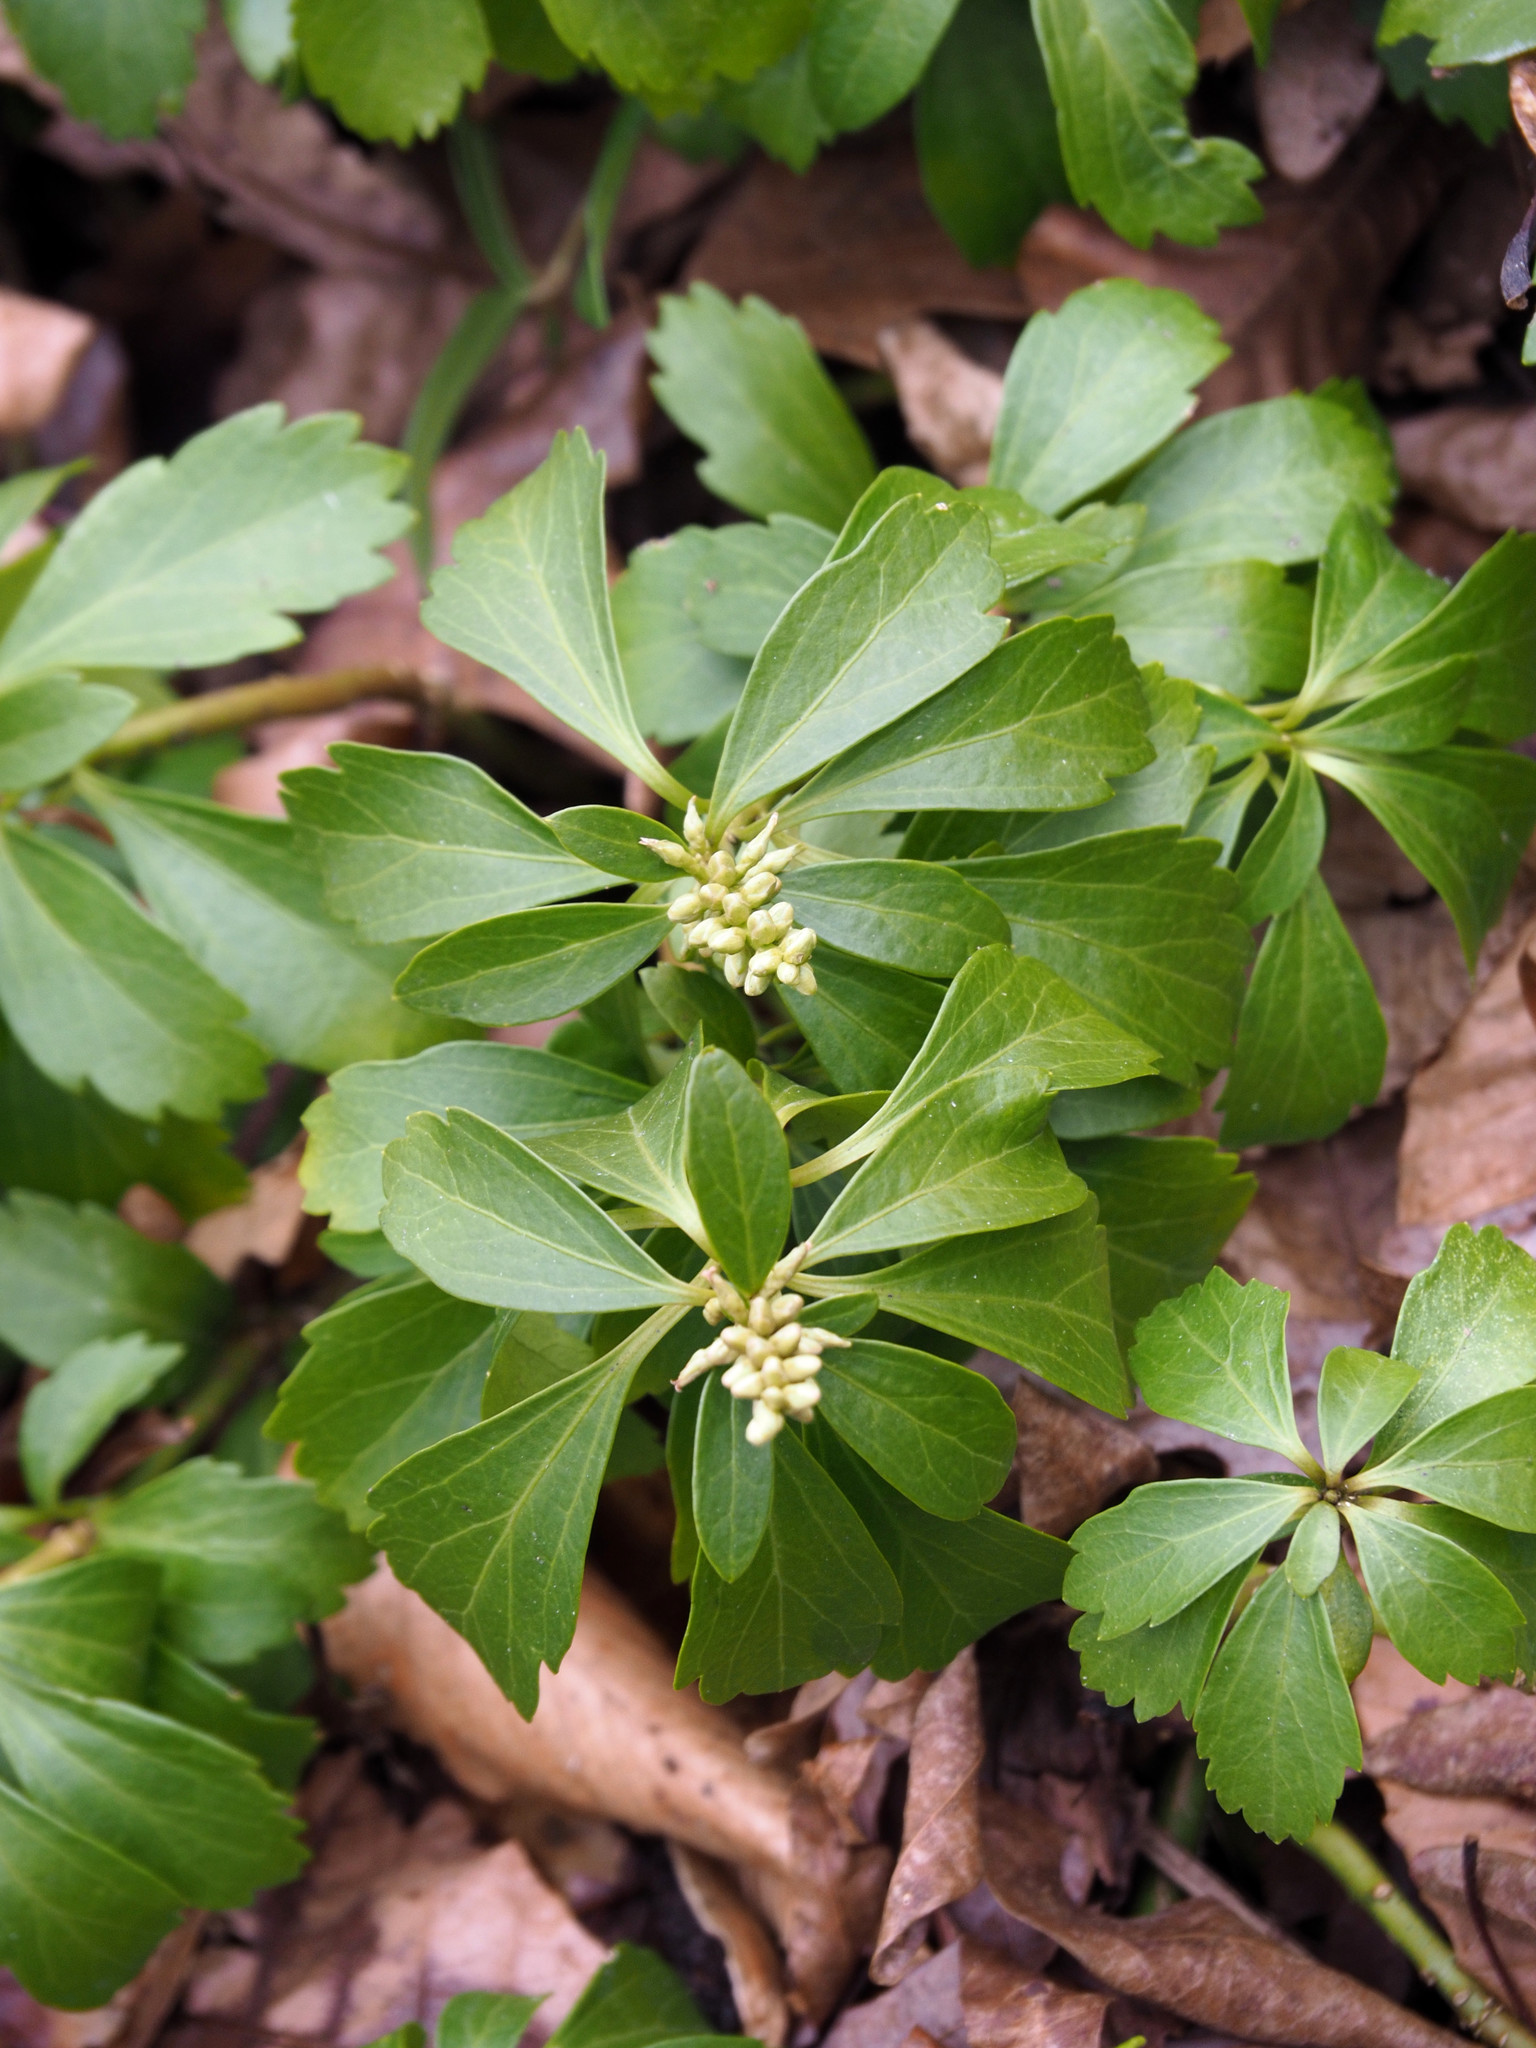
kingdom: Plantae
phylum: Tracheophyta
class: Magnoliopsida
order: Buxales
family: Buxaceae
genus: Pachysandra
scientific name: Pachysandra terminalis
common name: Japanese pachysandra
